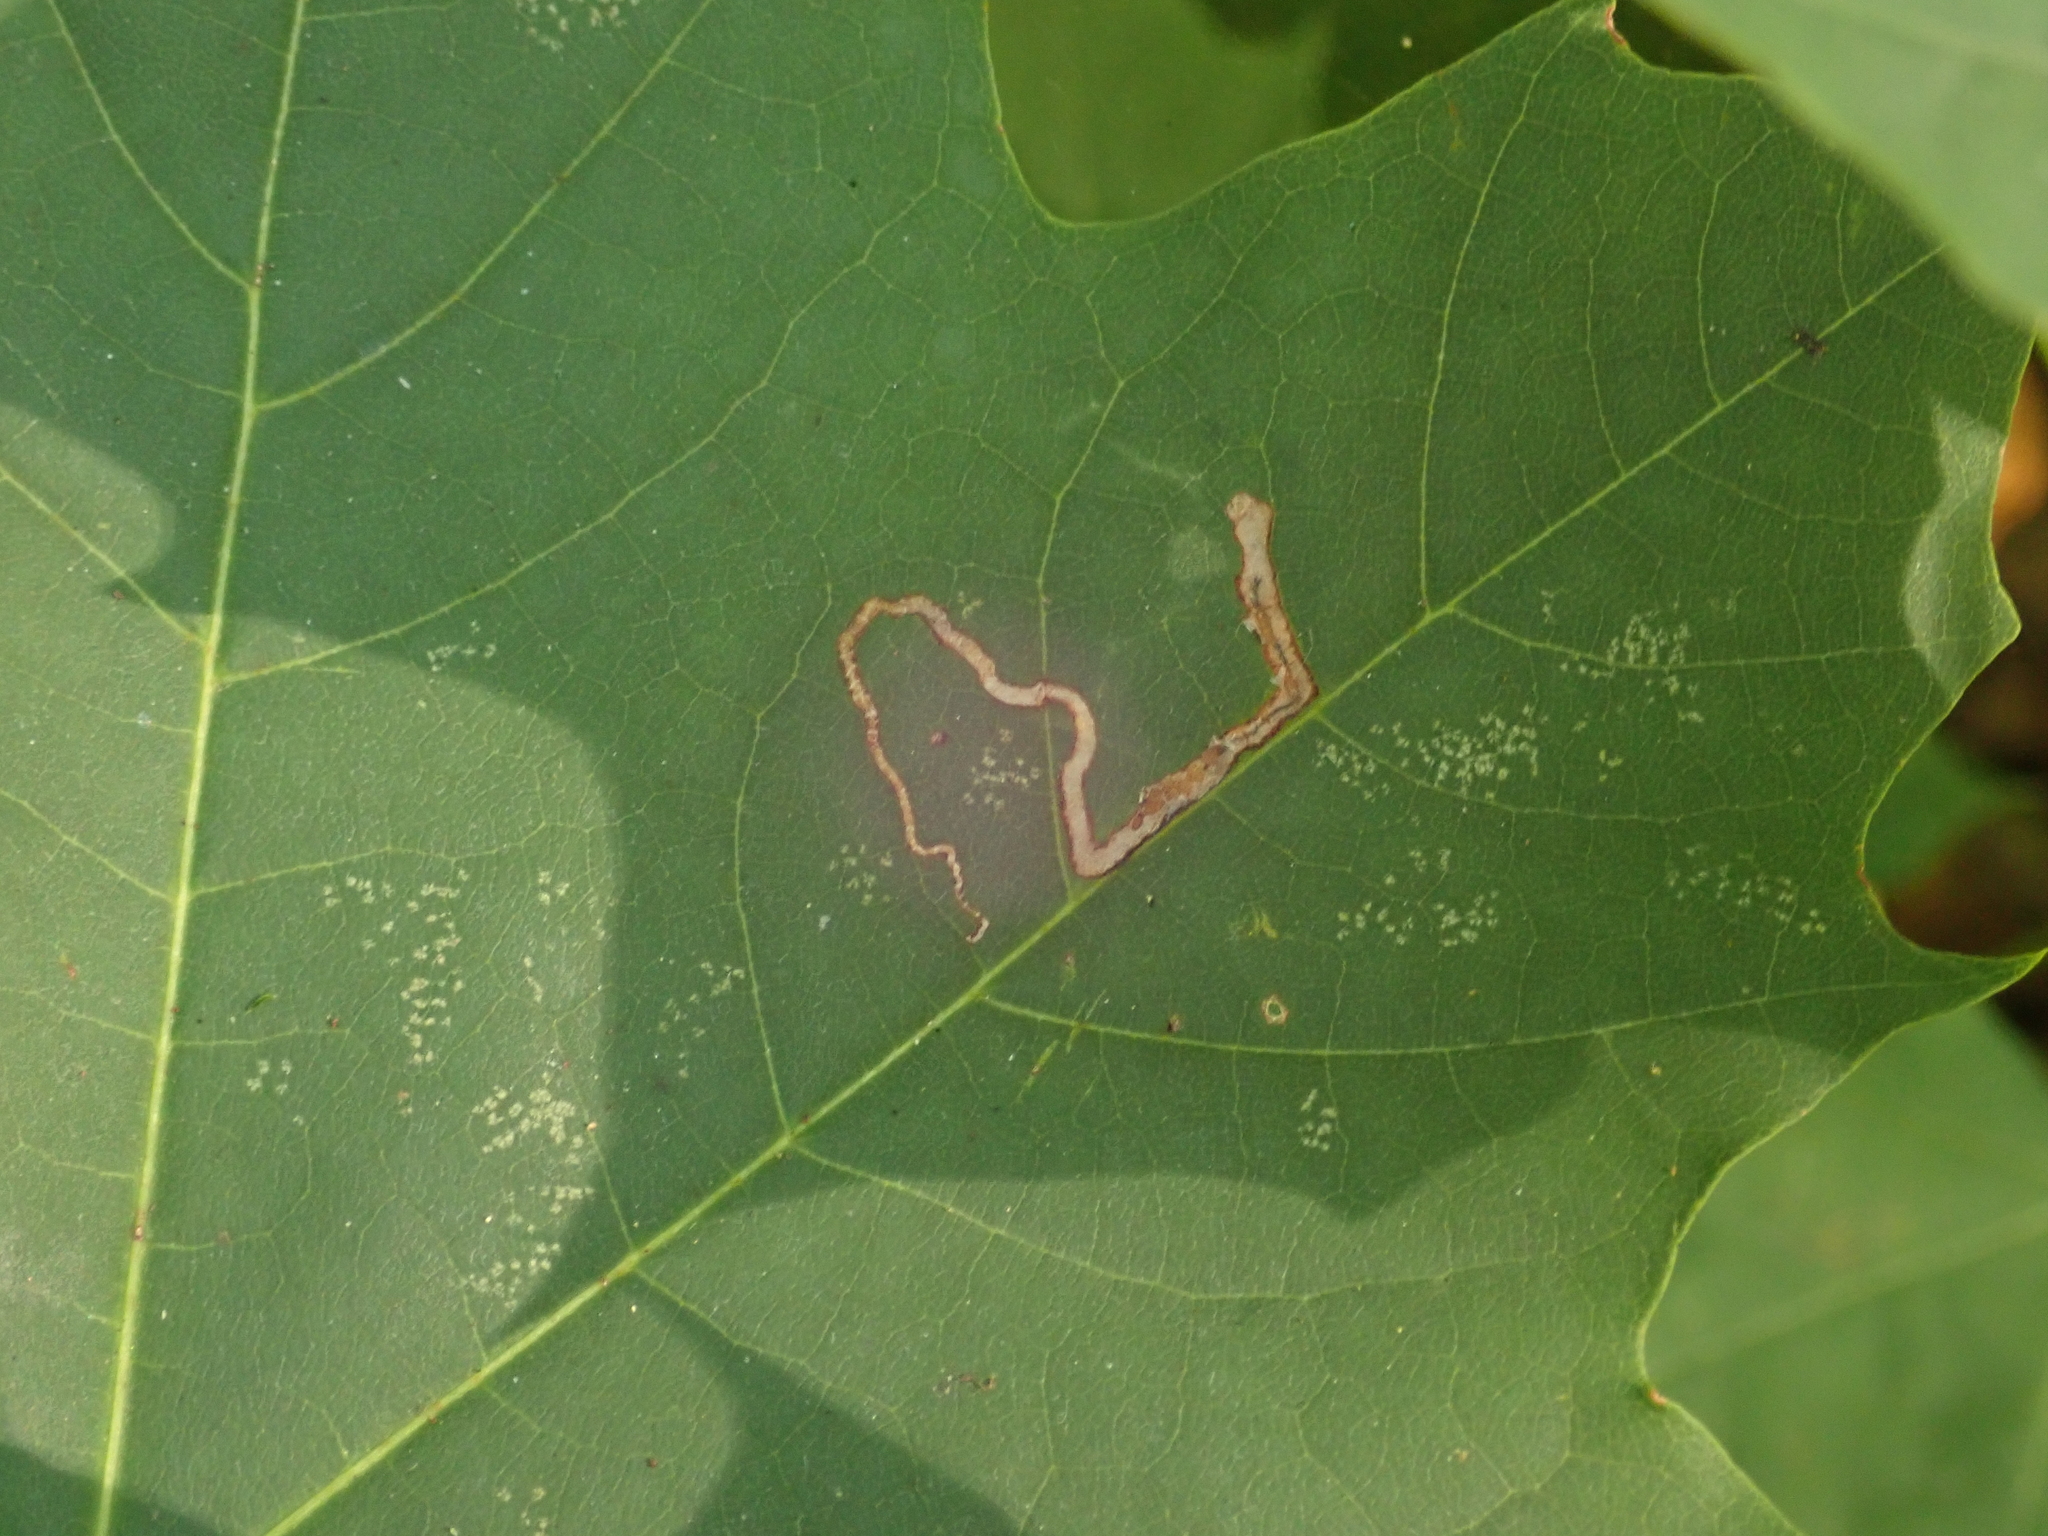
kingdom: Animalia
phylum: Arthropoda
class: Insecta
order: Lepidoptera
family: Nepticulidae
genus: Stigmella
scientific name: Stigmella aceris
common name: Scarce maple pigmy
